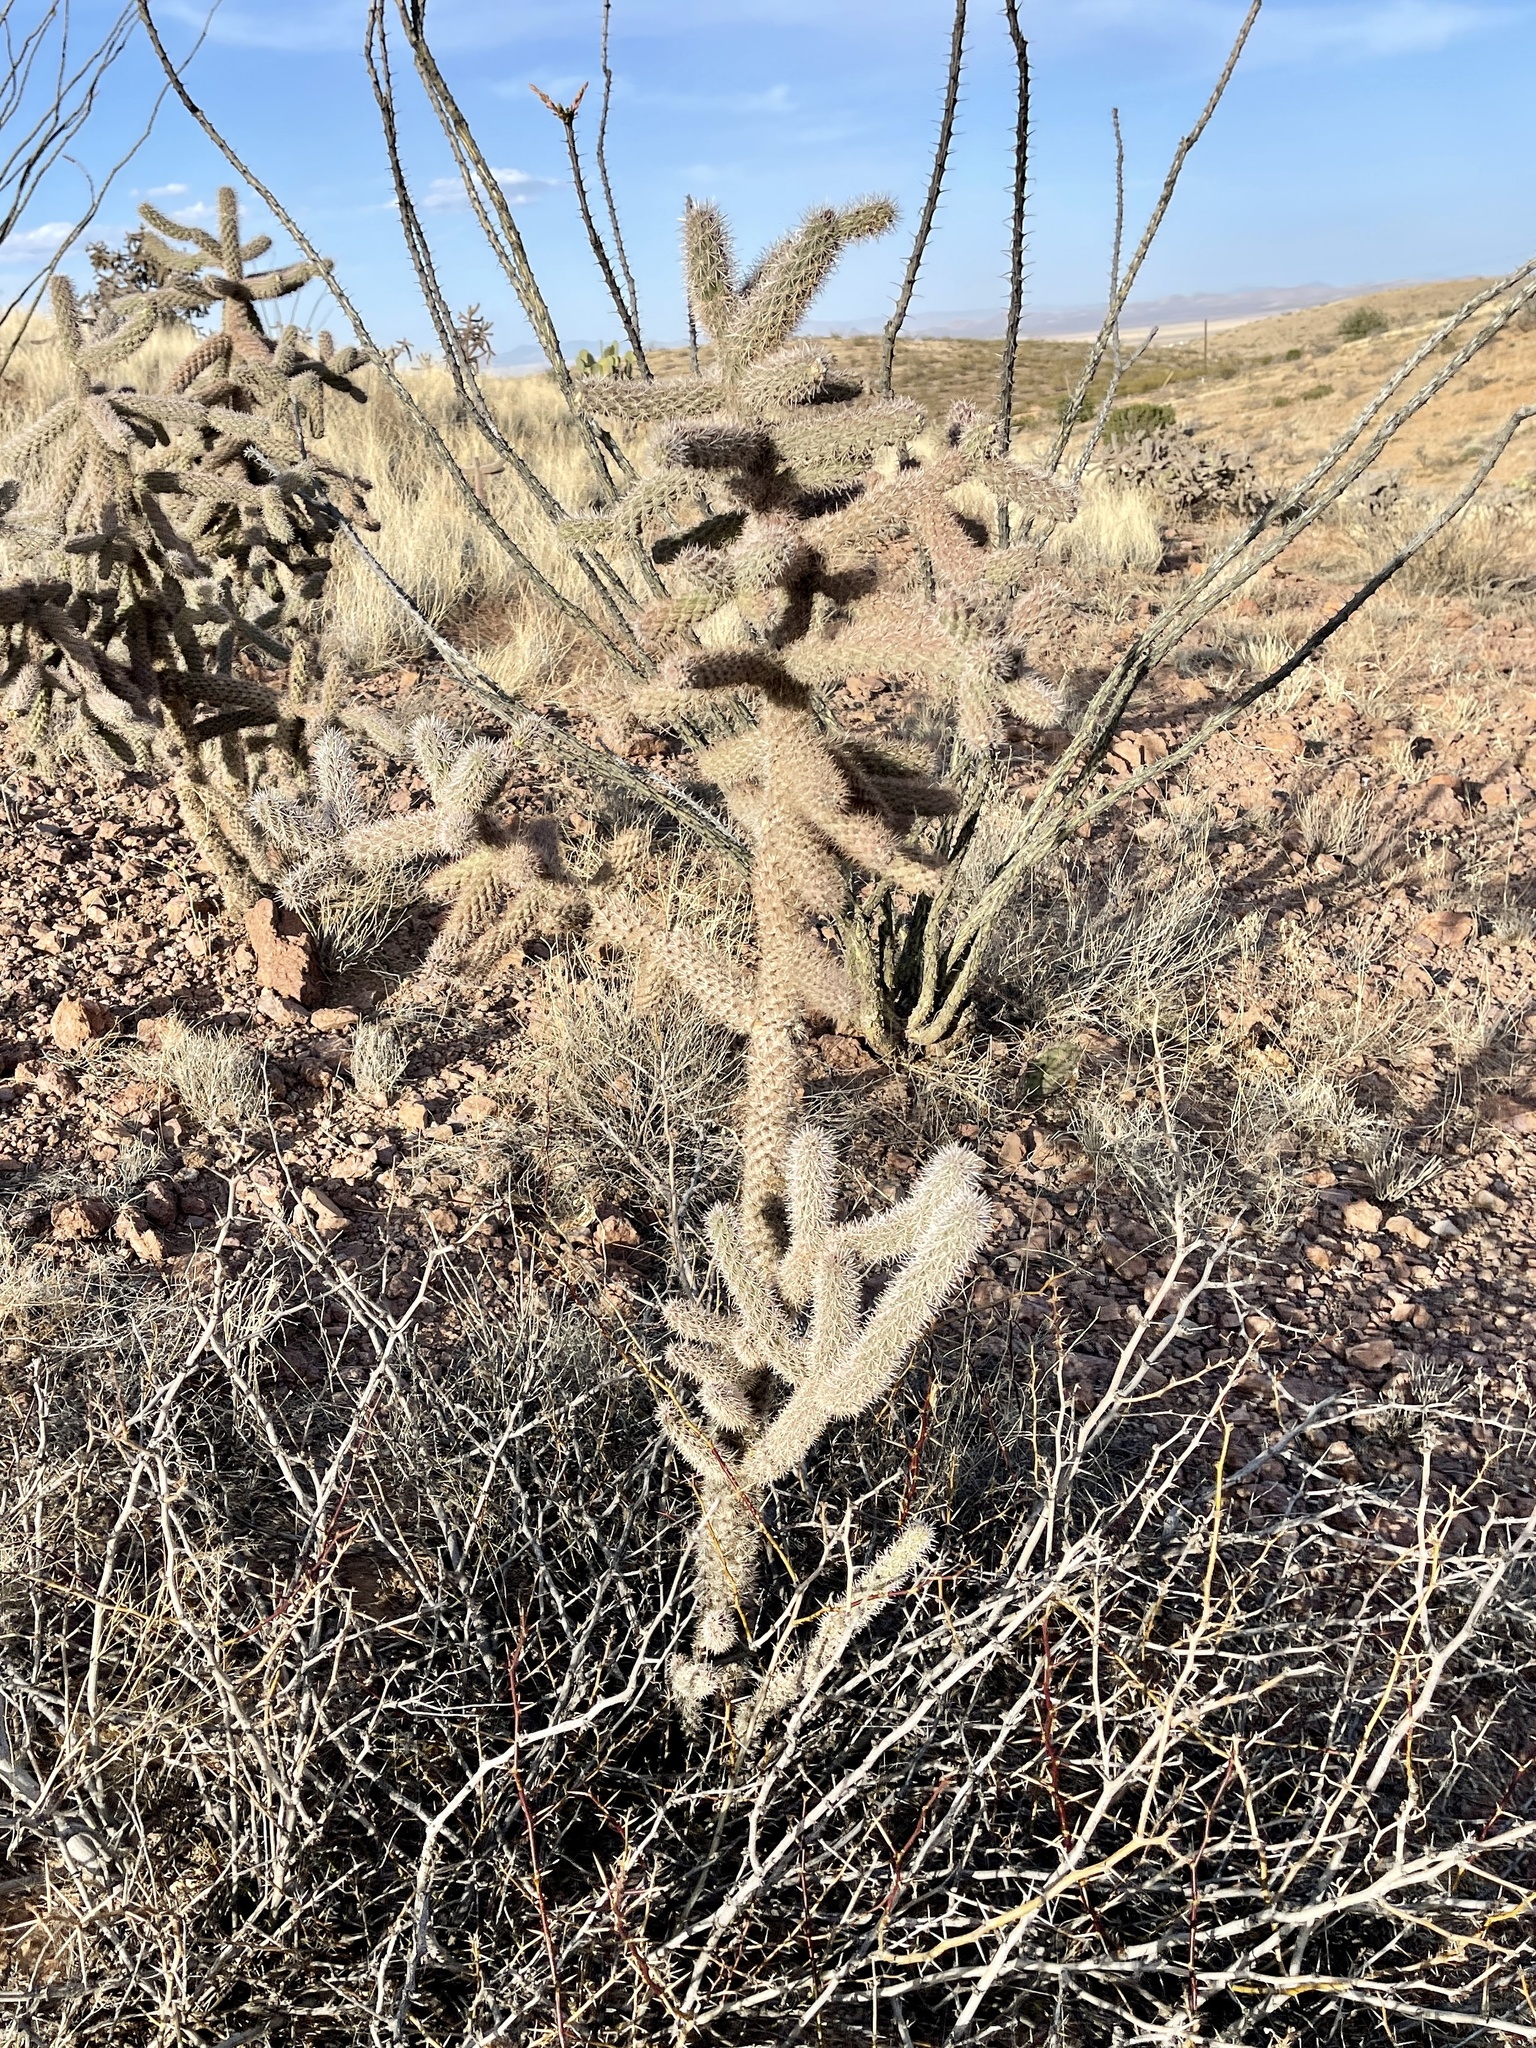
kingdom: Plantae
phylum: Tracheophyta
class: Magnoliopsida
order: Caryophyllales
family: Cactaceae
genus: Cylindropuntia
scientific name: Cylindropuntia imbricata
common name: Candelabrum cactus
